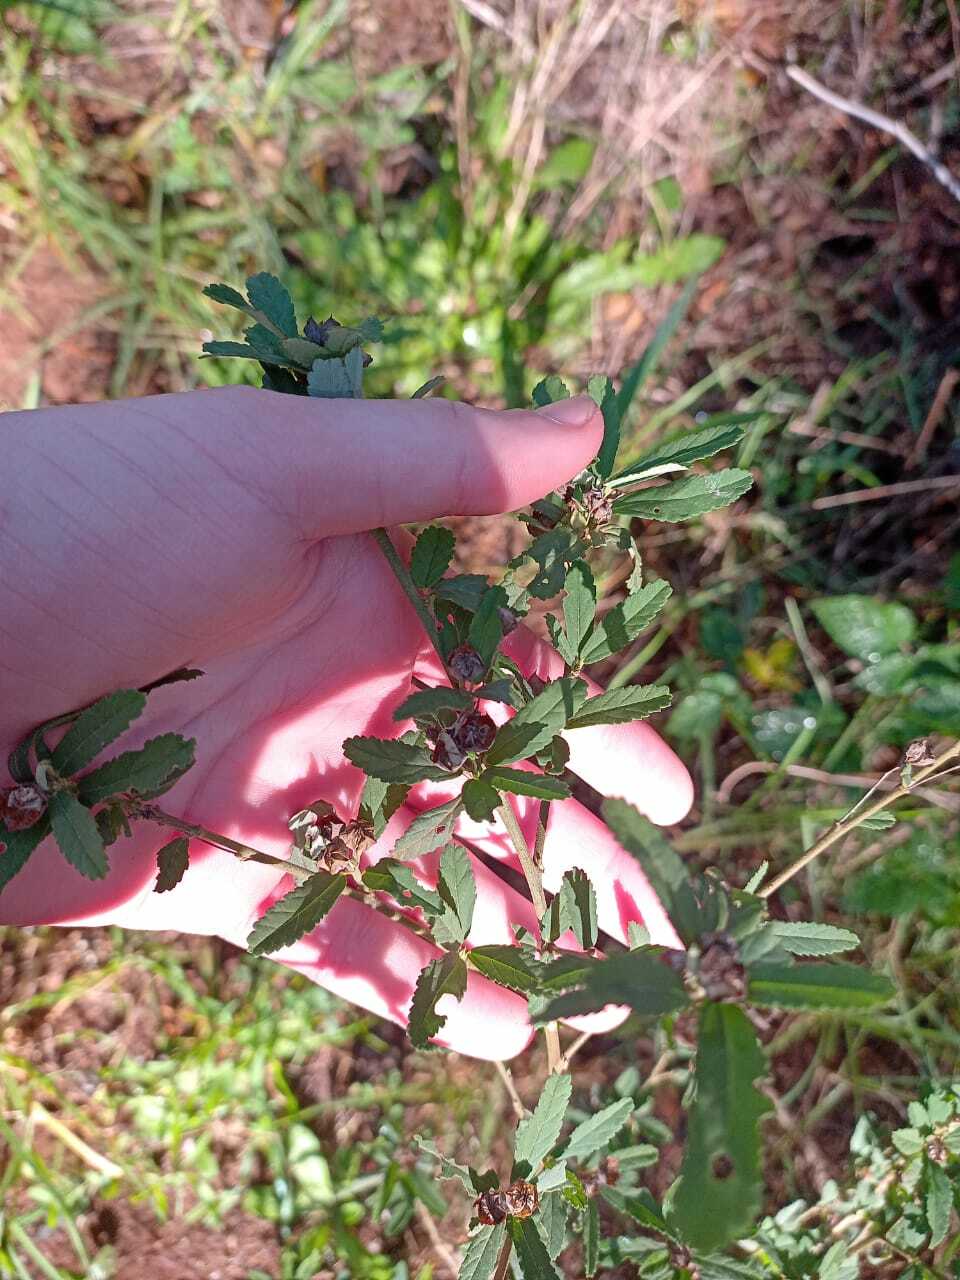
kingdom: Plantae
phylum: Tracheophyta
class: Magnoliopsida
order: Malvales
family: Malvaceae
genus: Sida
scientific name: Sida rhombifolia
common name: Queensland-hemp
